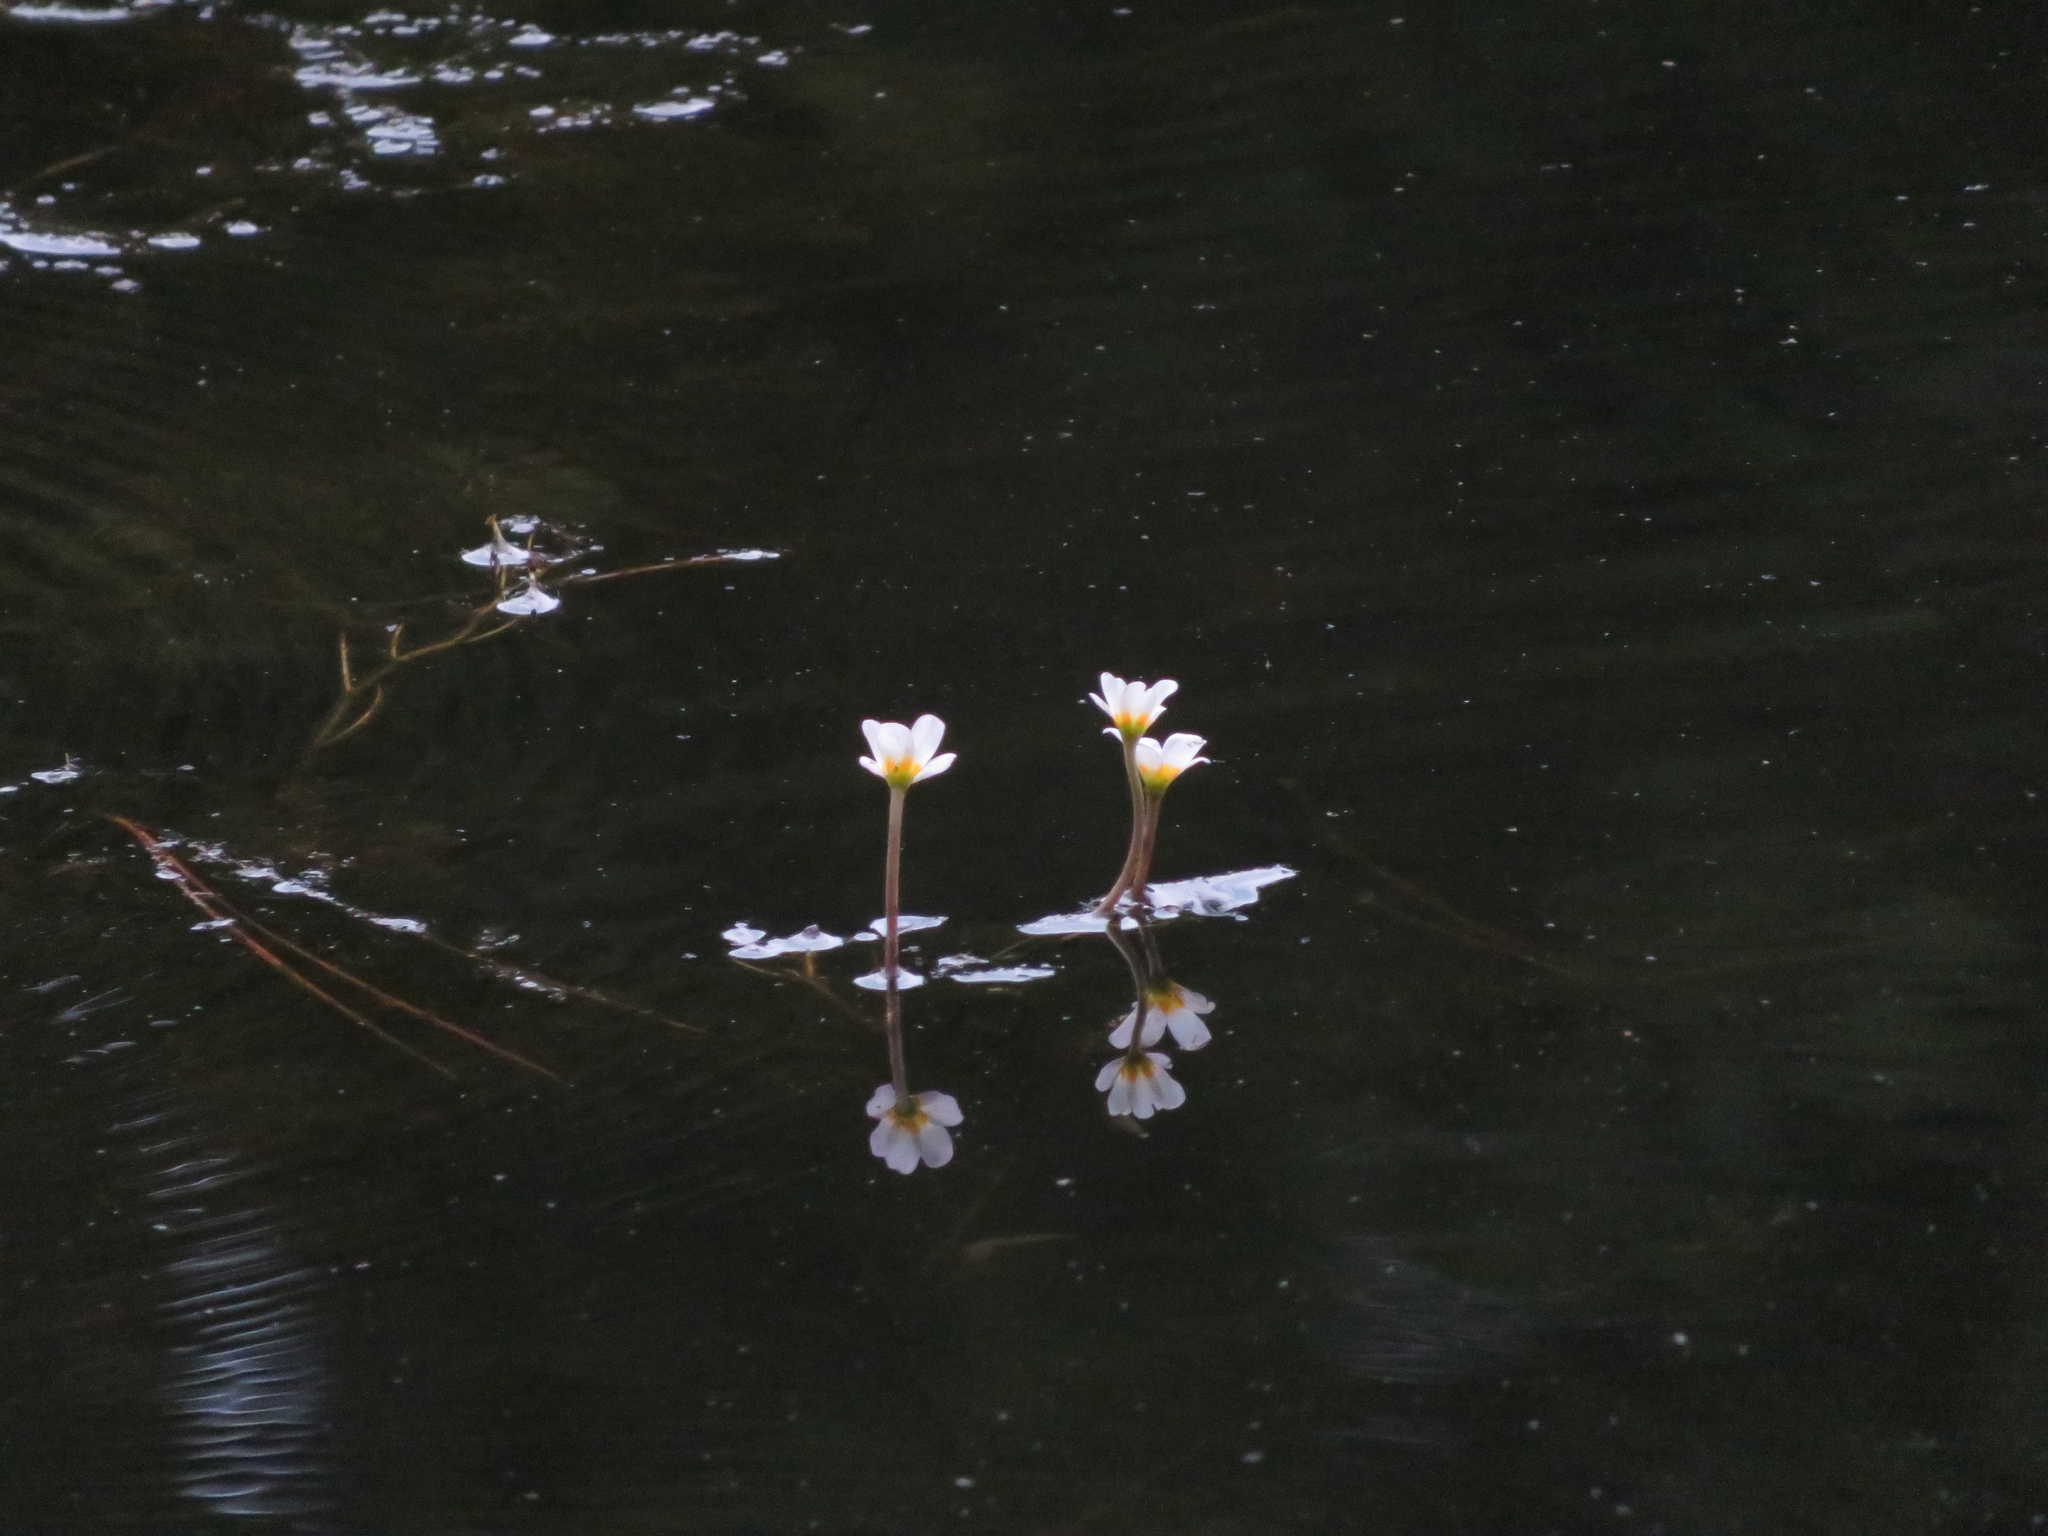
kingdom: Plantae
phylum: Tracheophyta
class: Magnoliopsida
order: Nymphaeales
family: Cabombaceae
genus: Cabomba
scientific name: Cabomba caroliniana
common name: Fanwort
